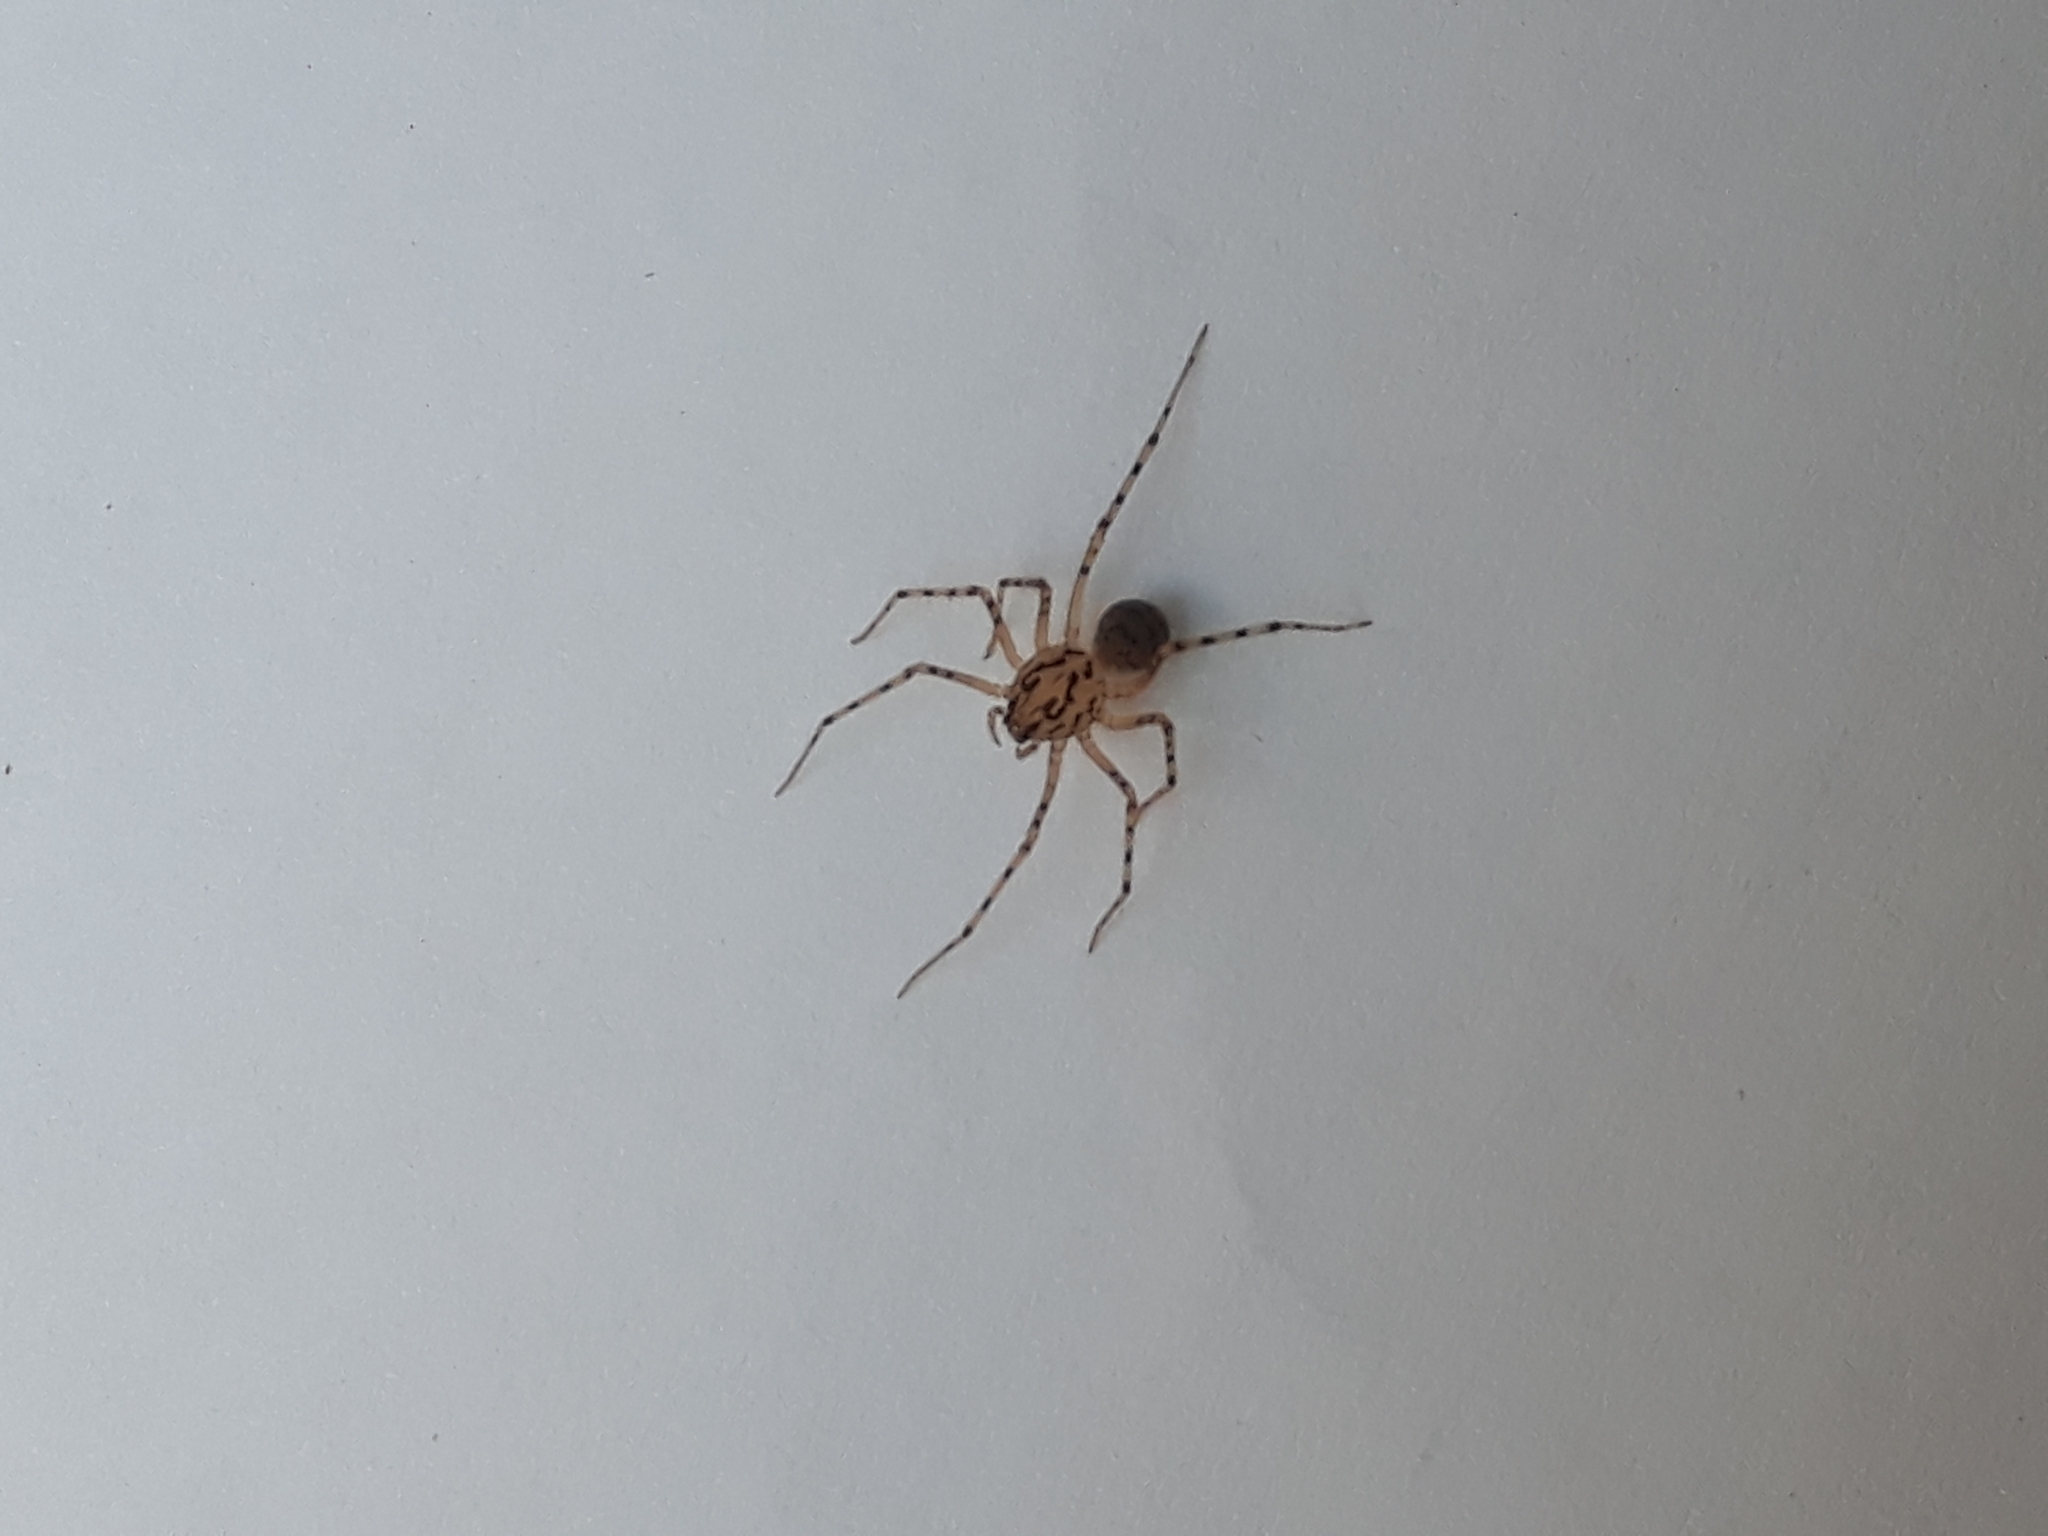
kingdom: Animalia
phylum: Arthropoda
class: Arachnida
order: Araneae
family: Scytodidae
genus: Scytodes
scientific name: Scytodes thoracica
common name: Spitting spider
